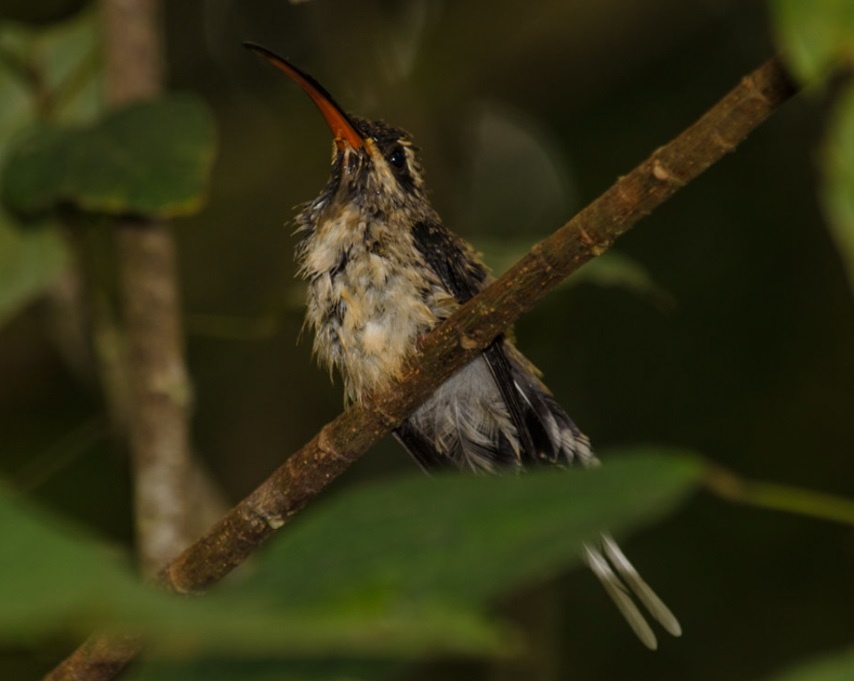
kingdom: Animalia
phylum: Chordata
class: Aves
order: Apodiformes
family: Trochilidae
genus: Phaethornis
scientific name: Phaethornis malaris
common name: Great-billed hermit
